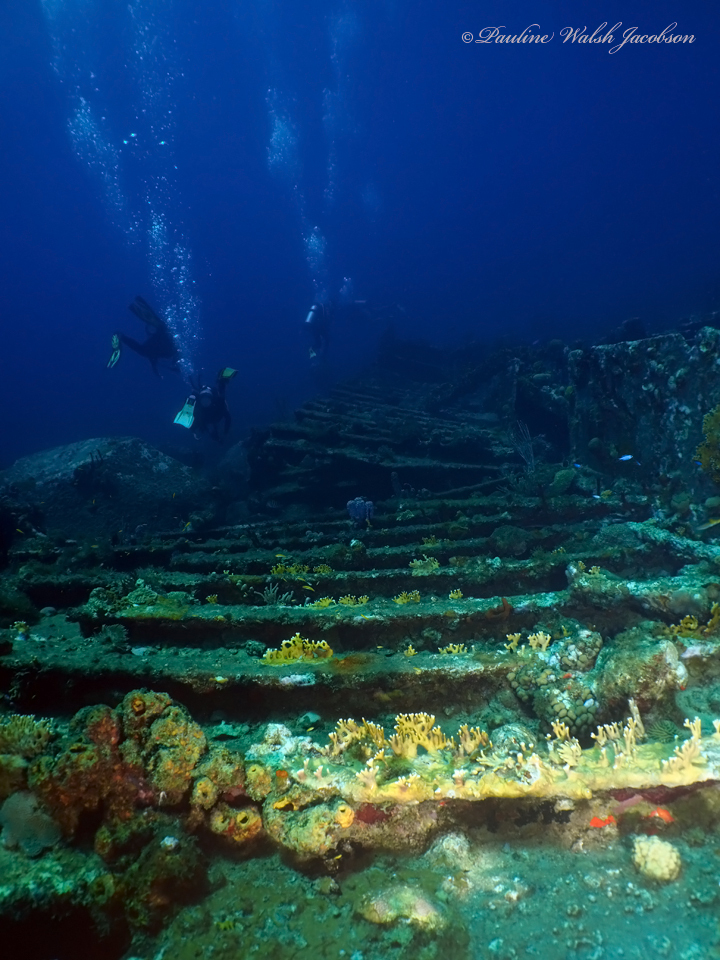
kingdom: Animalia
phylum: Cnidaria
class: Hydrozoa
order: Anthoathecata
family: Milleporidae
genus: Millepora
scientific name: Millepora alcicornis
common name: Branching fire coral
